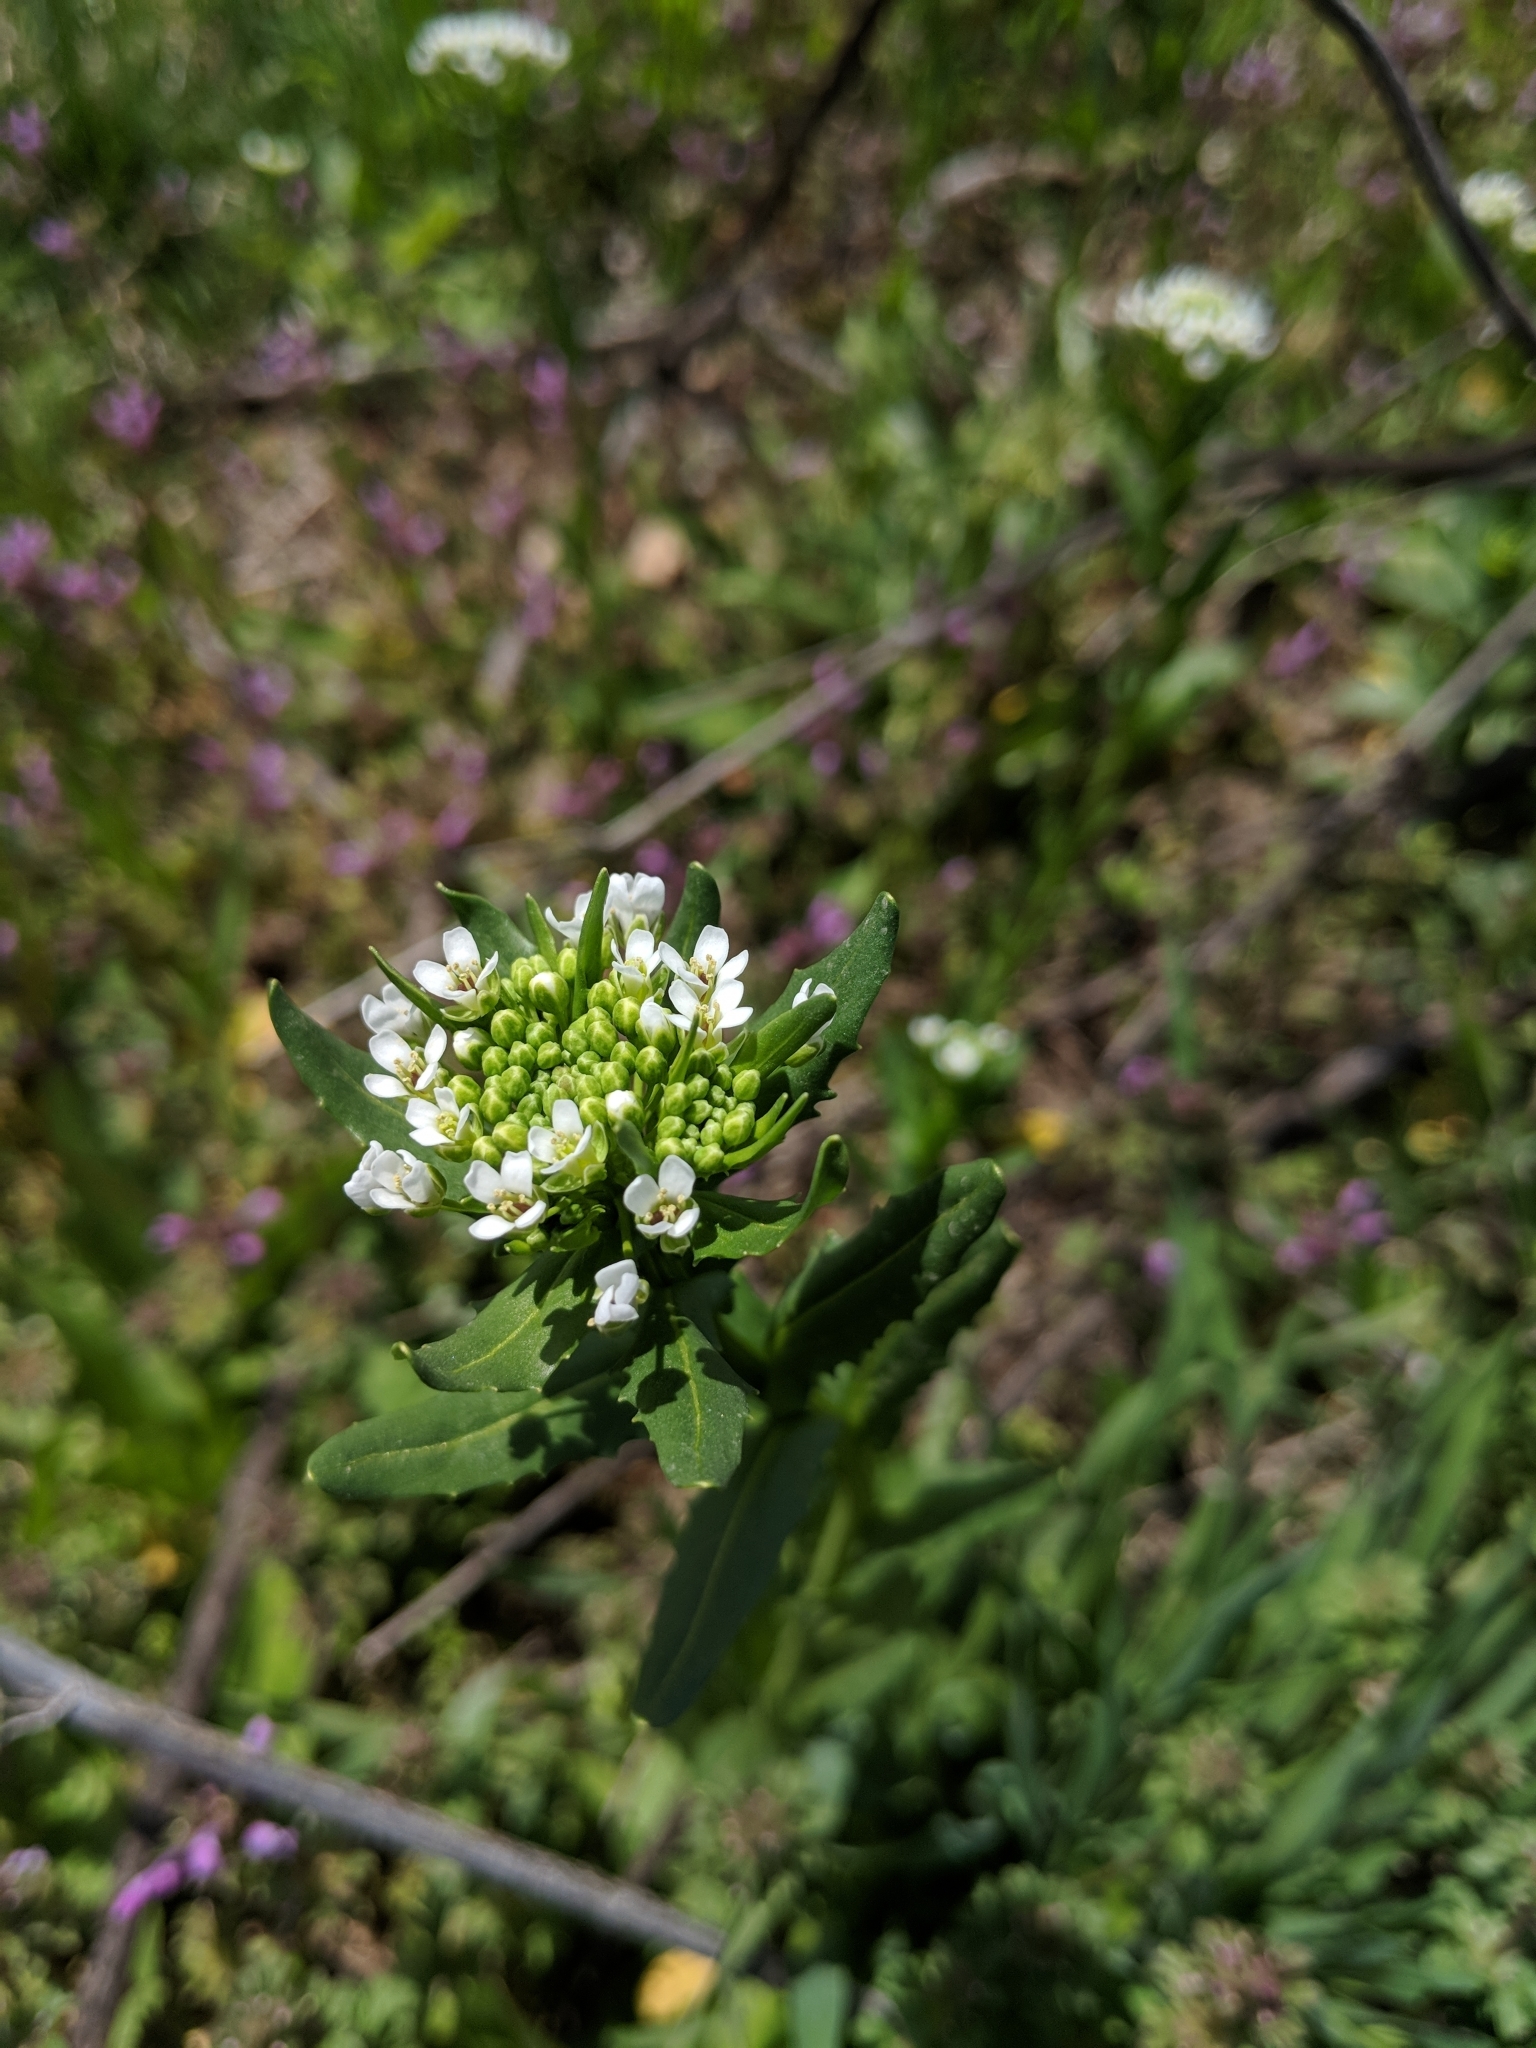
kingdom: Plantae
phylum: Tracheophyta
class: Magnoliopsida
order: Brassicales
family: Brassicaceae
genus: Thlaspi
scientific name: Thlaspi arvense
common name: Field pennycress
